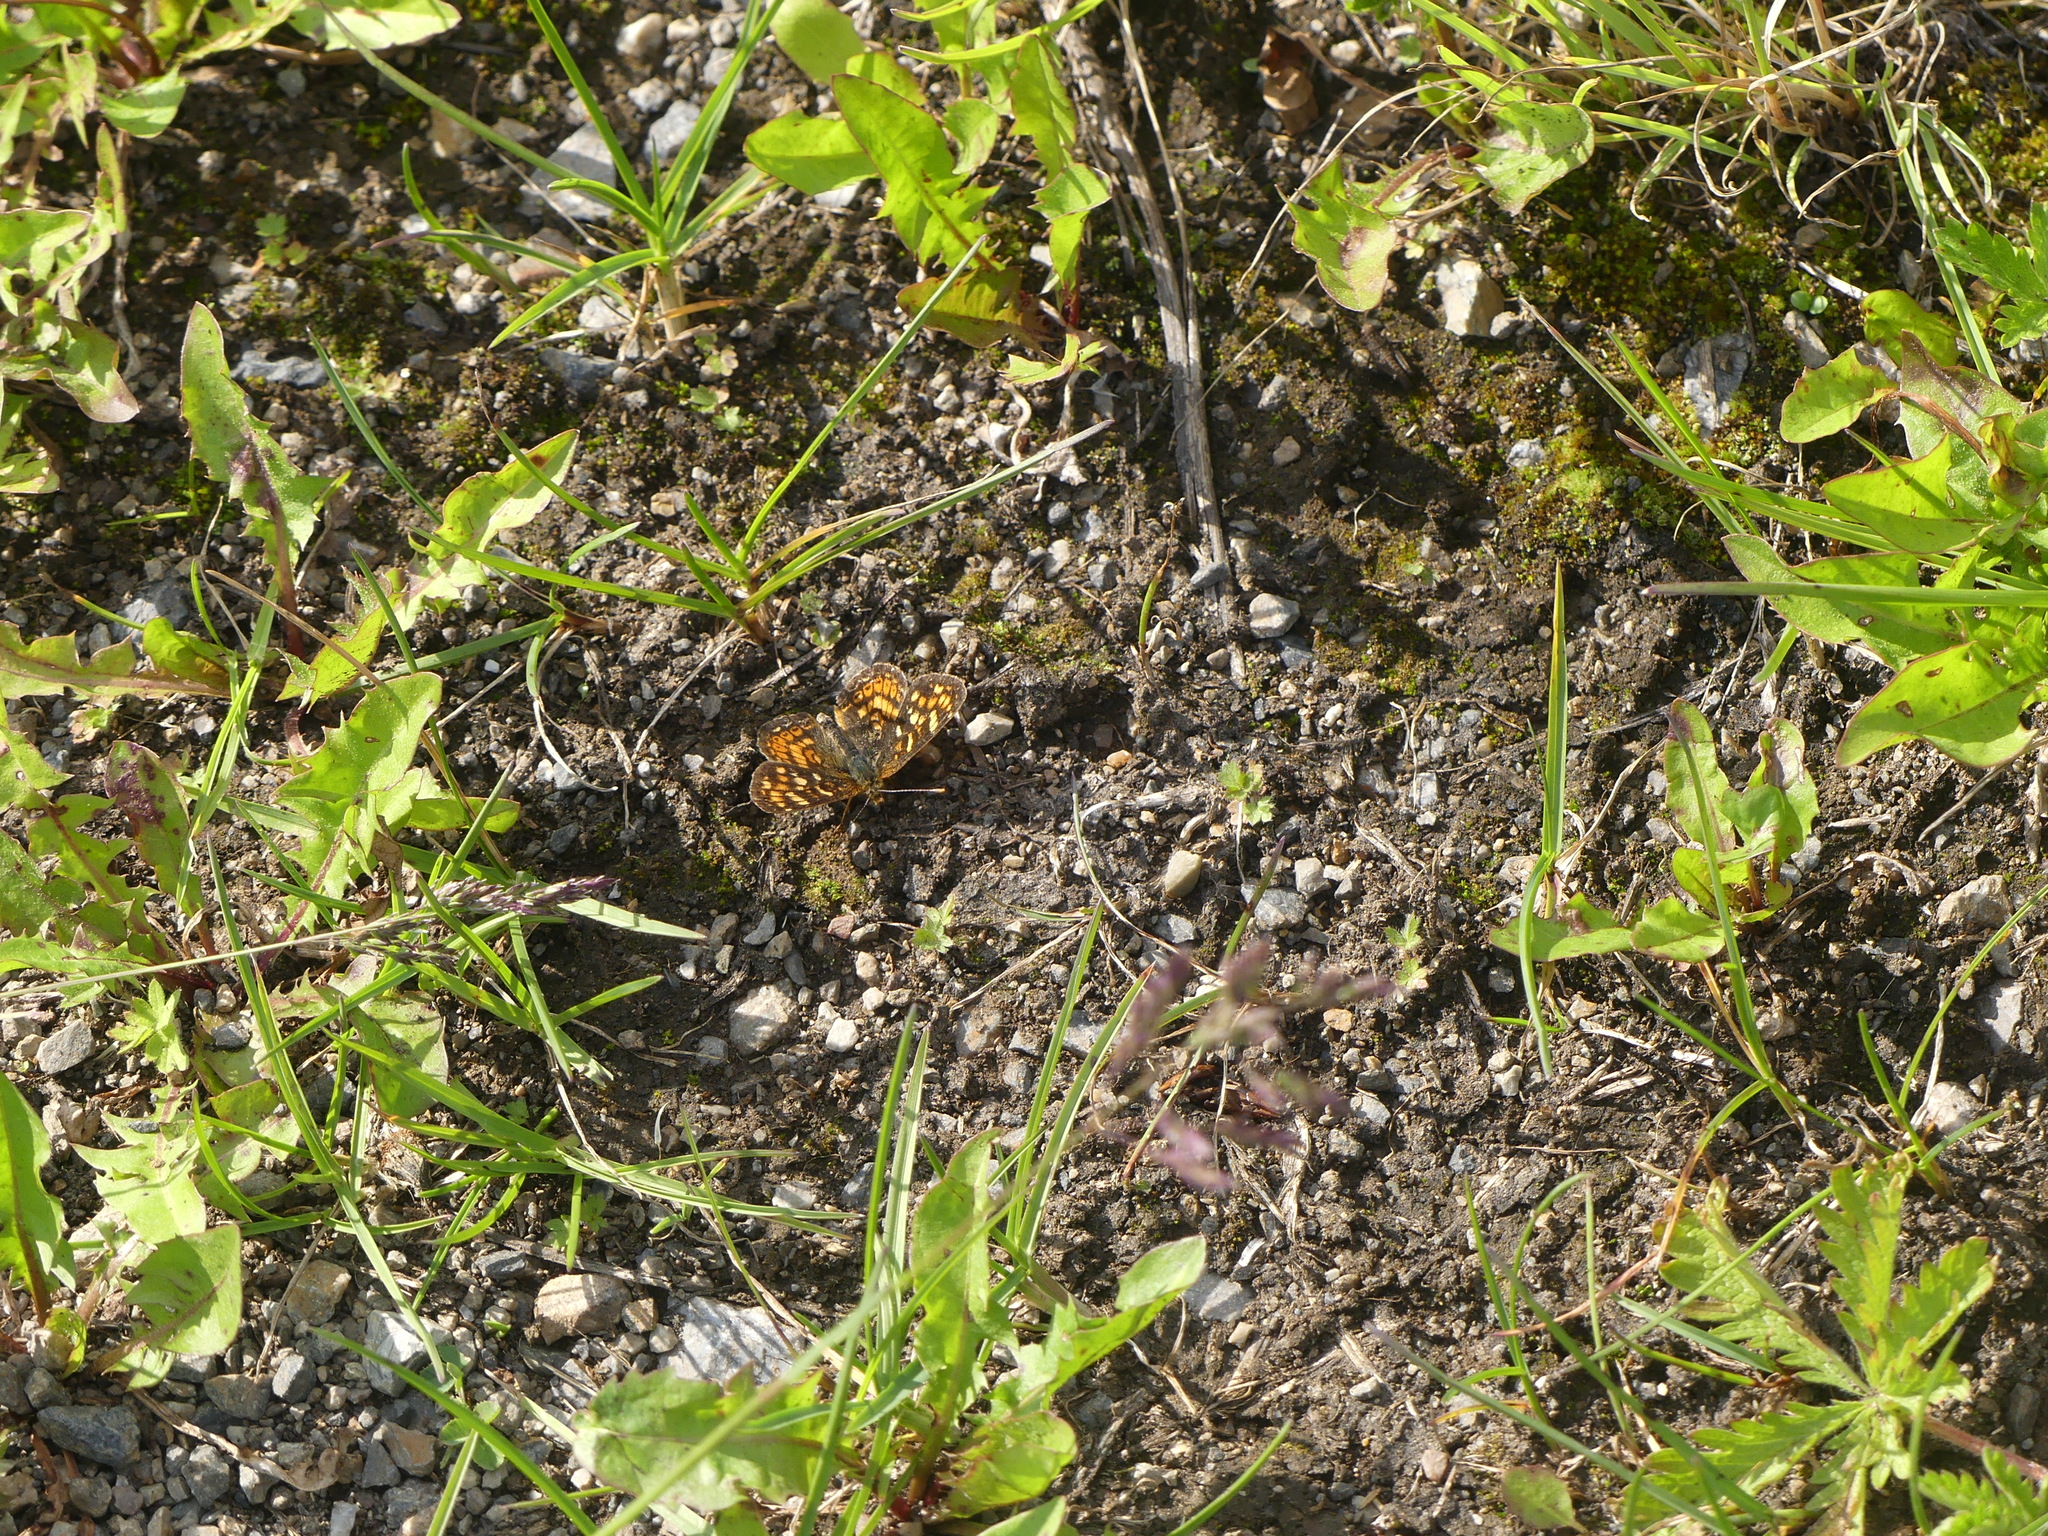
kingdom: Animalia
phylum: Arthropoda
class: Insecta
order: Lepidoptera
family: Nymphalidae
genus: Phyciodes
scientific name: Phyciodes tharos
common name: Pearl crescent
